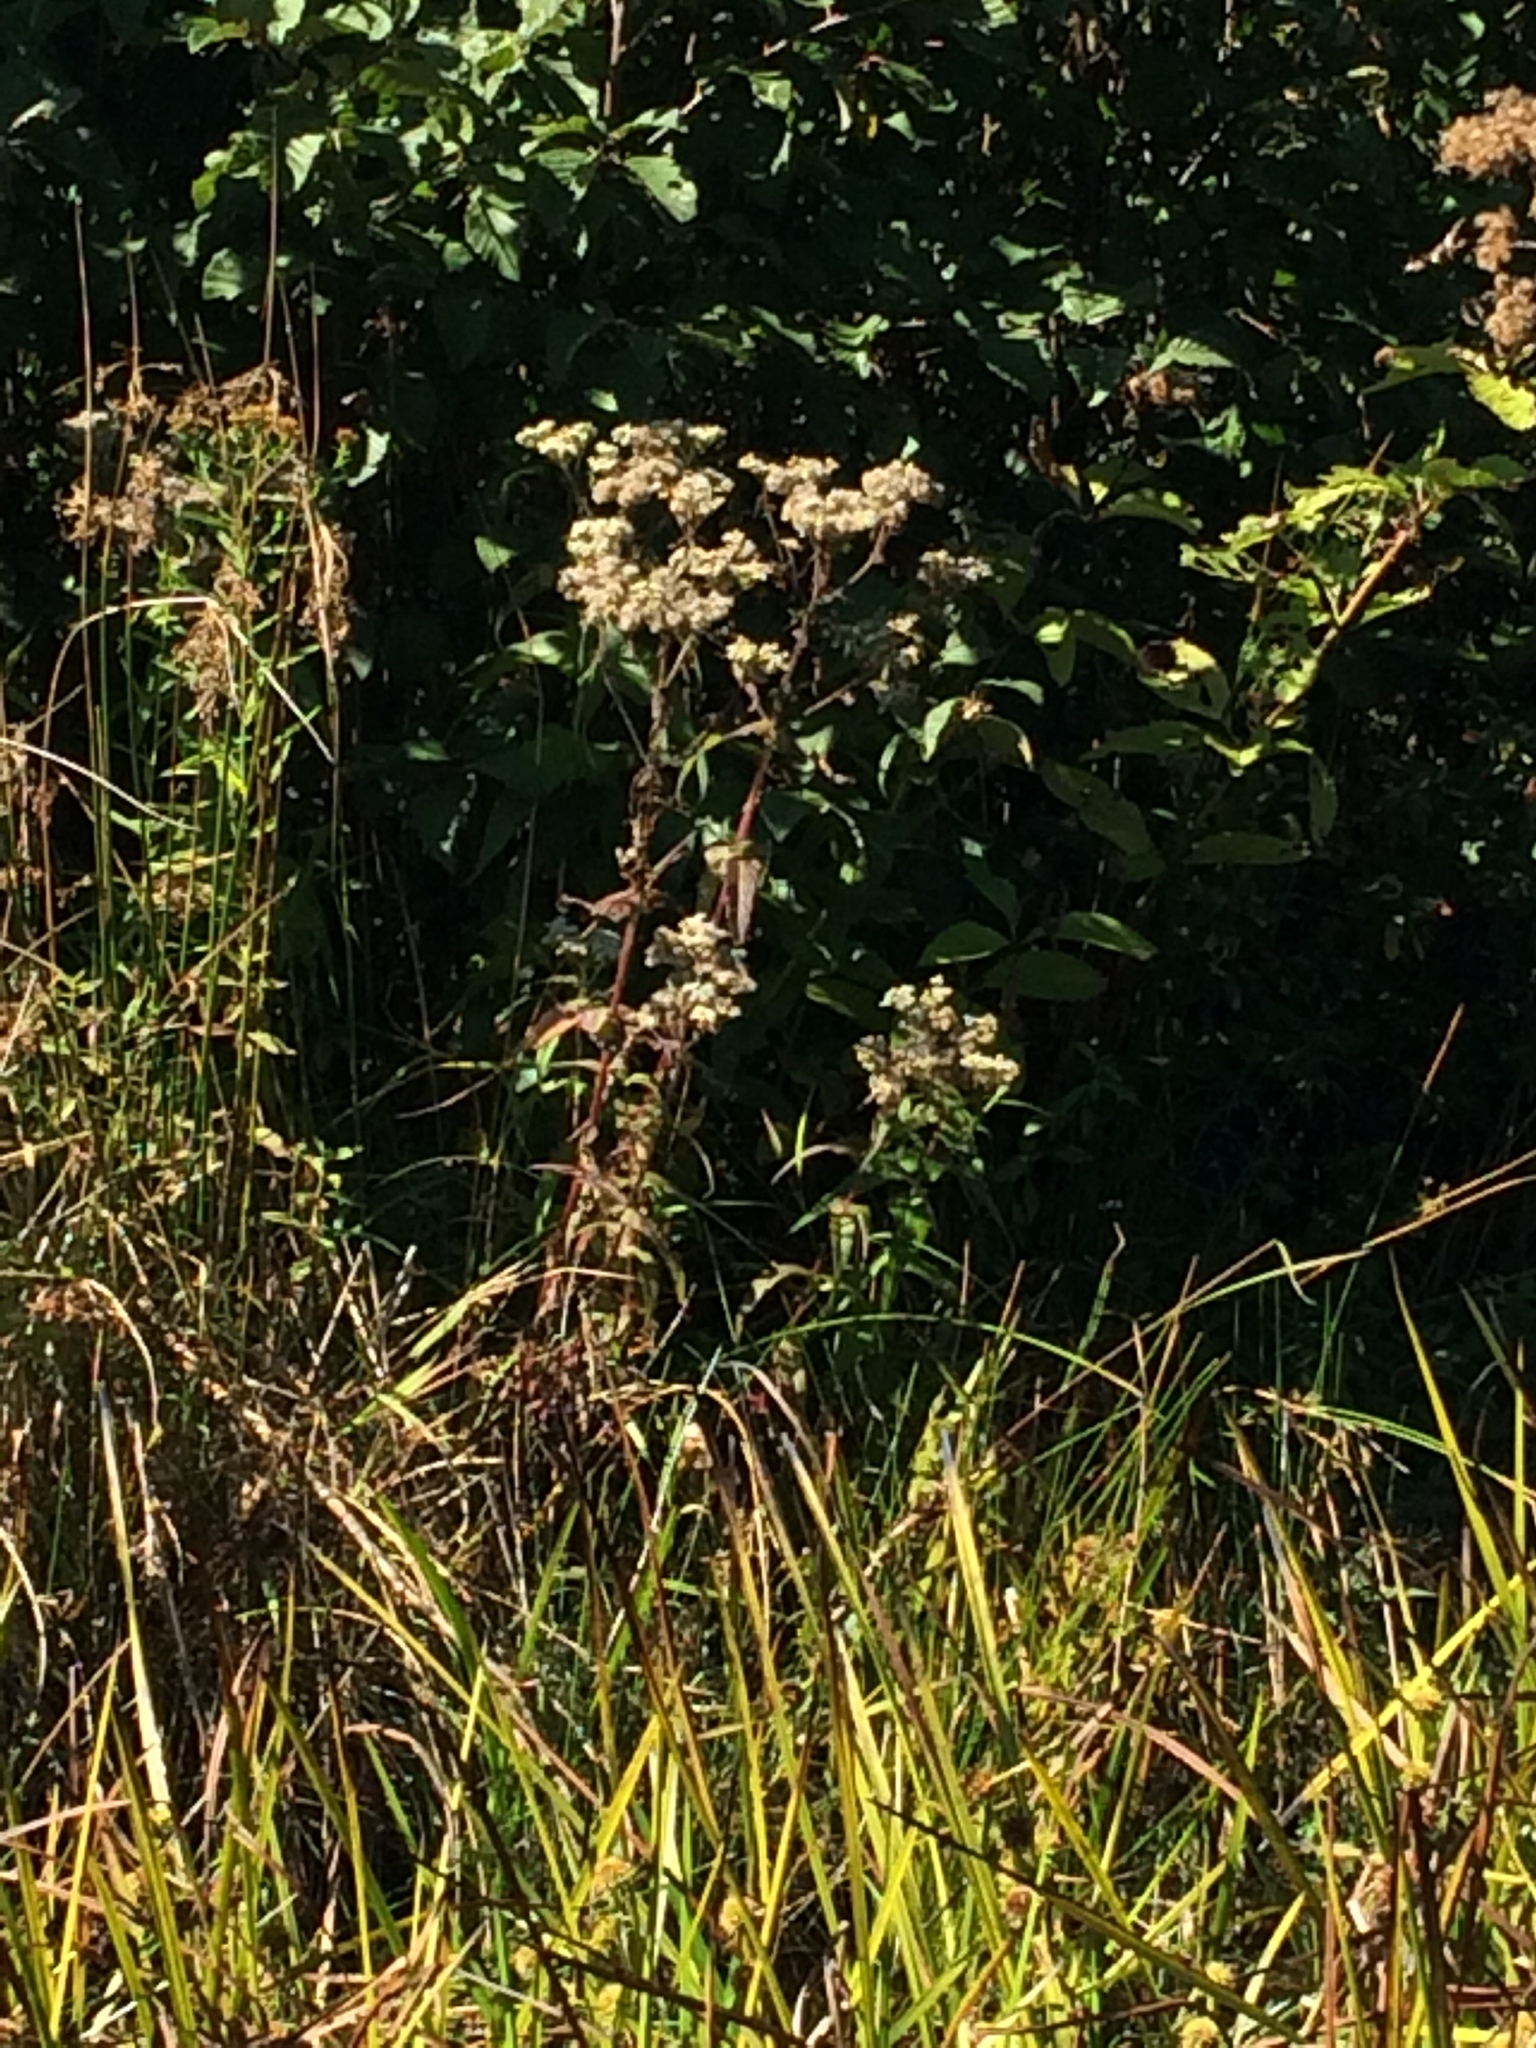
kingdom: Plantae
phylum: Tracheophyta
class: Magnoliopsida
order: Asterales
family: Asteraceae
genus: Eupatorium
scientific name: Eupatorium perfoliatum
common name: Boneset
